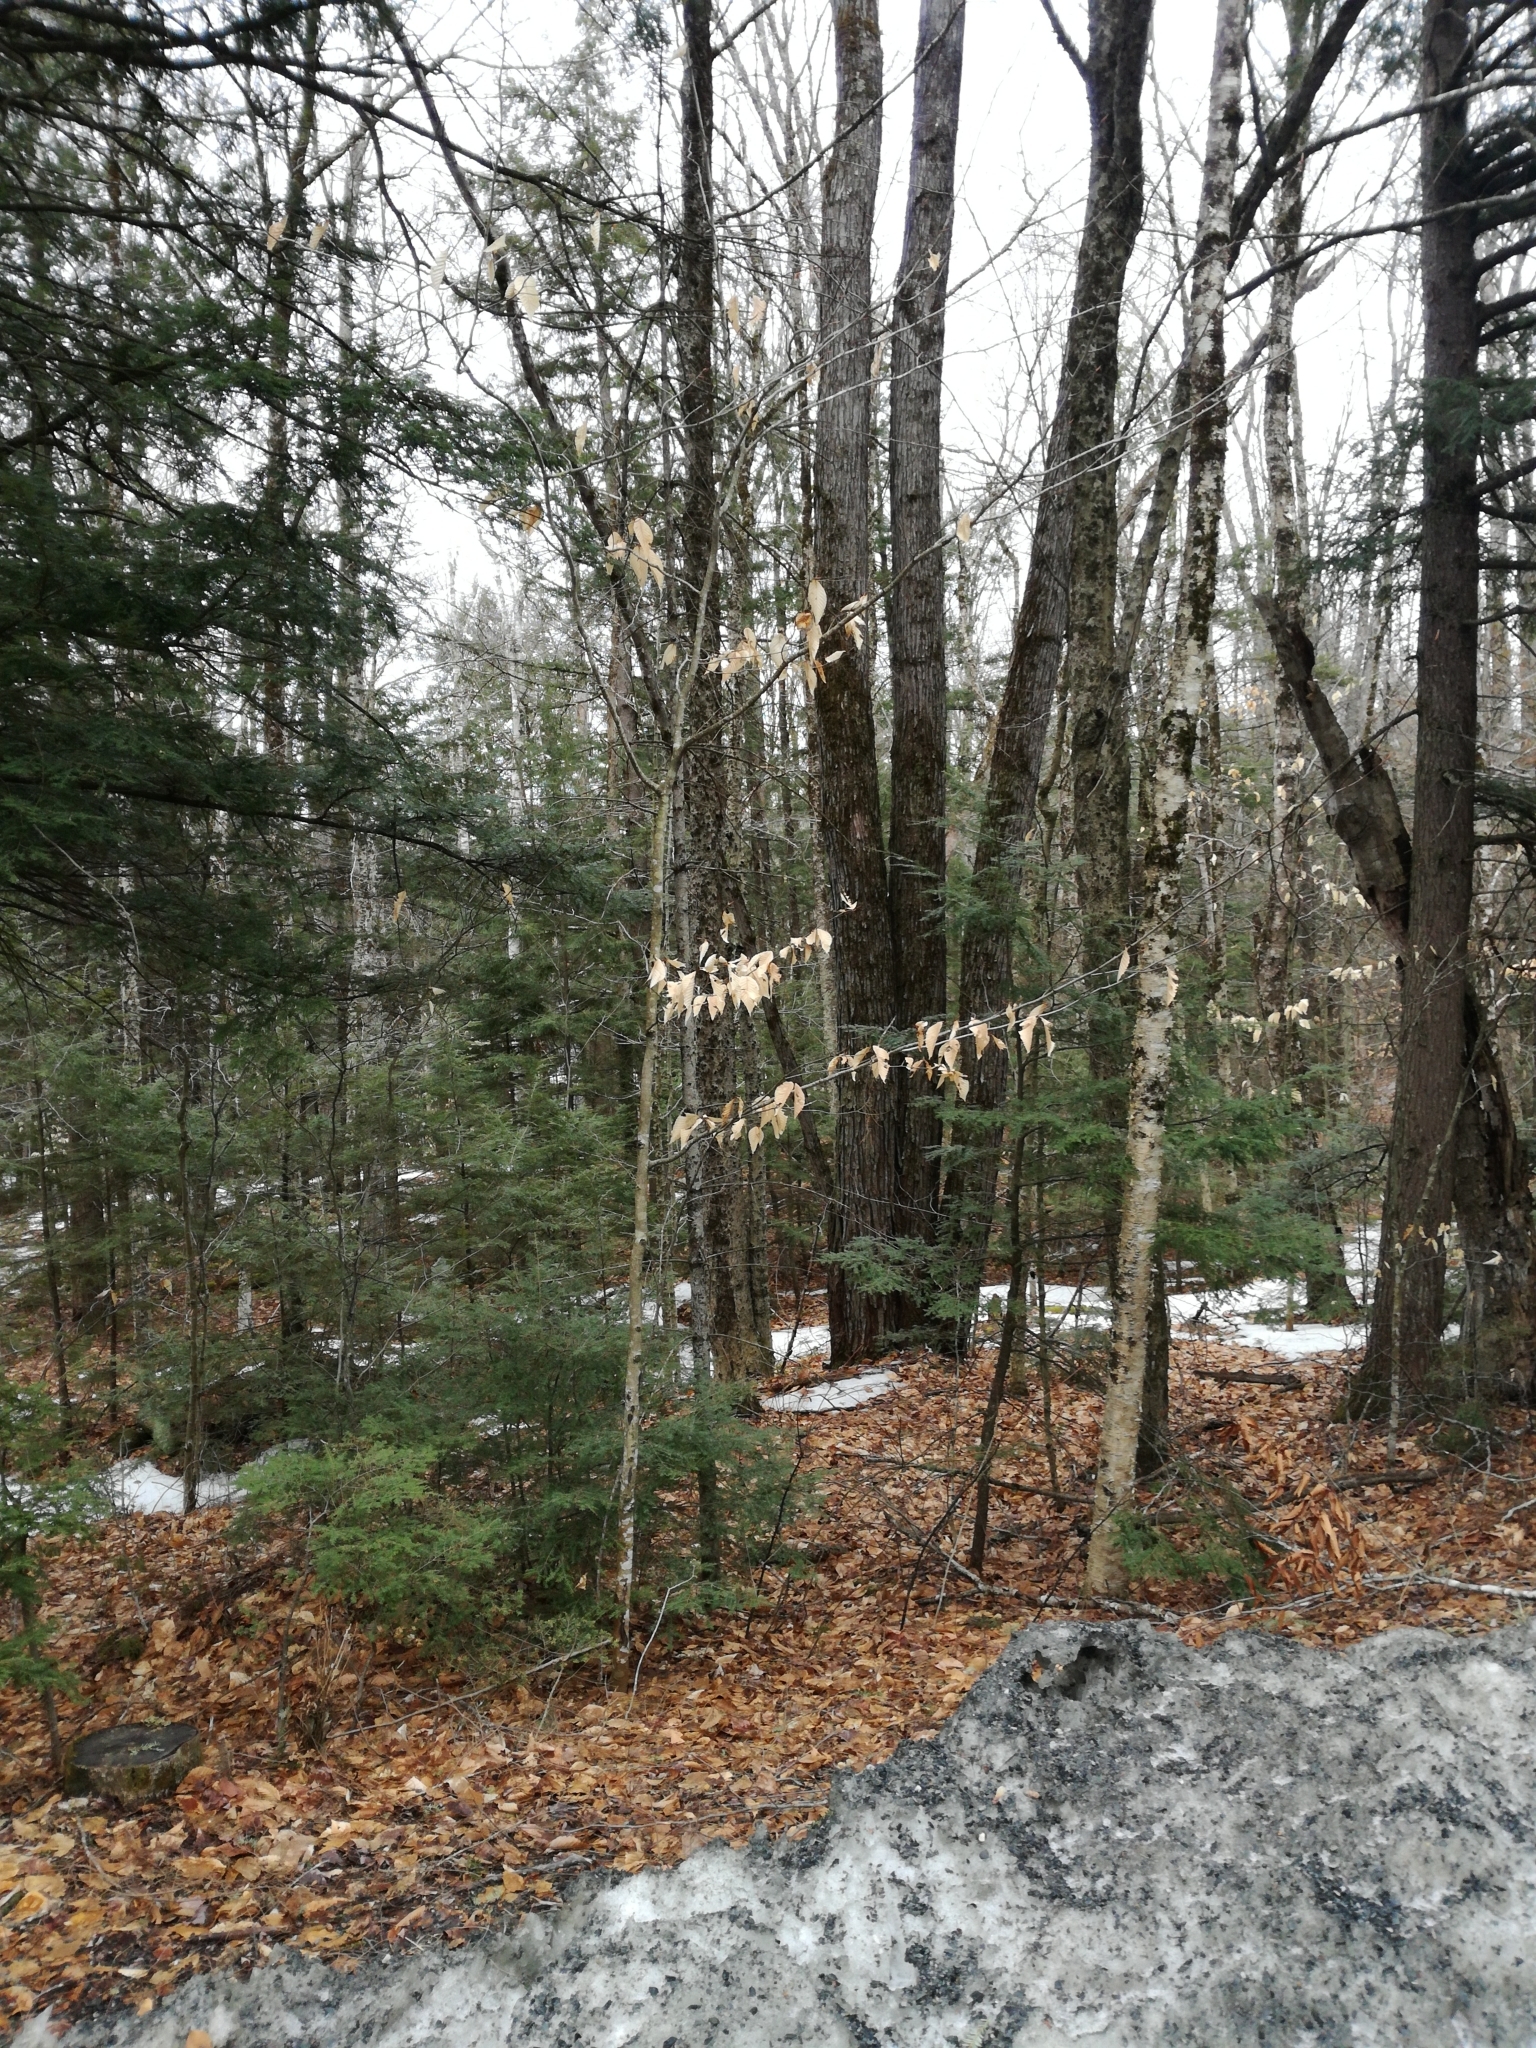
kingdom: Plantae
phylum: Tracheophyta
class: Magnoliopsida
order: Fagales
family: Fagaceae
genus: Fagus
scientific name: Fagus grandifolia
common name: American beech
